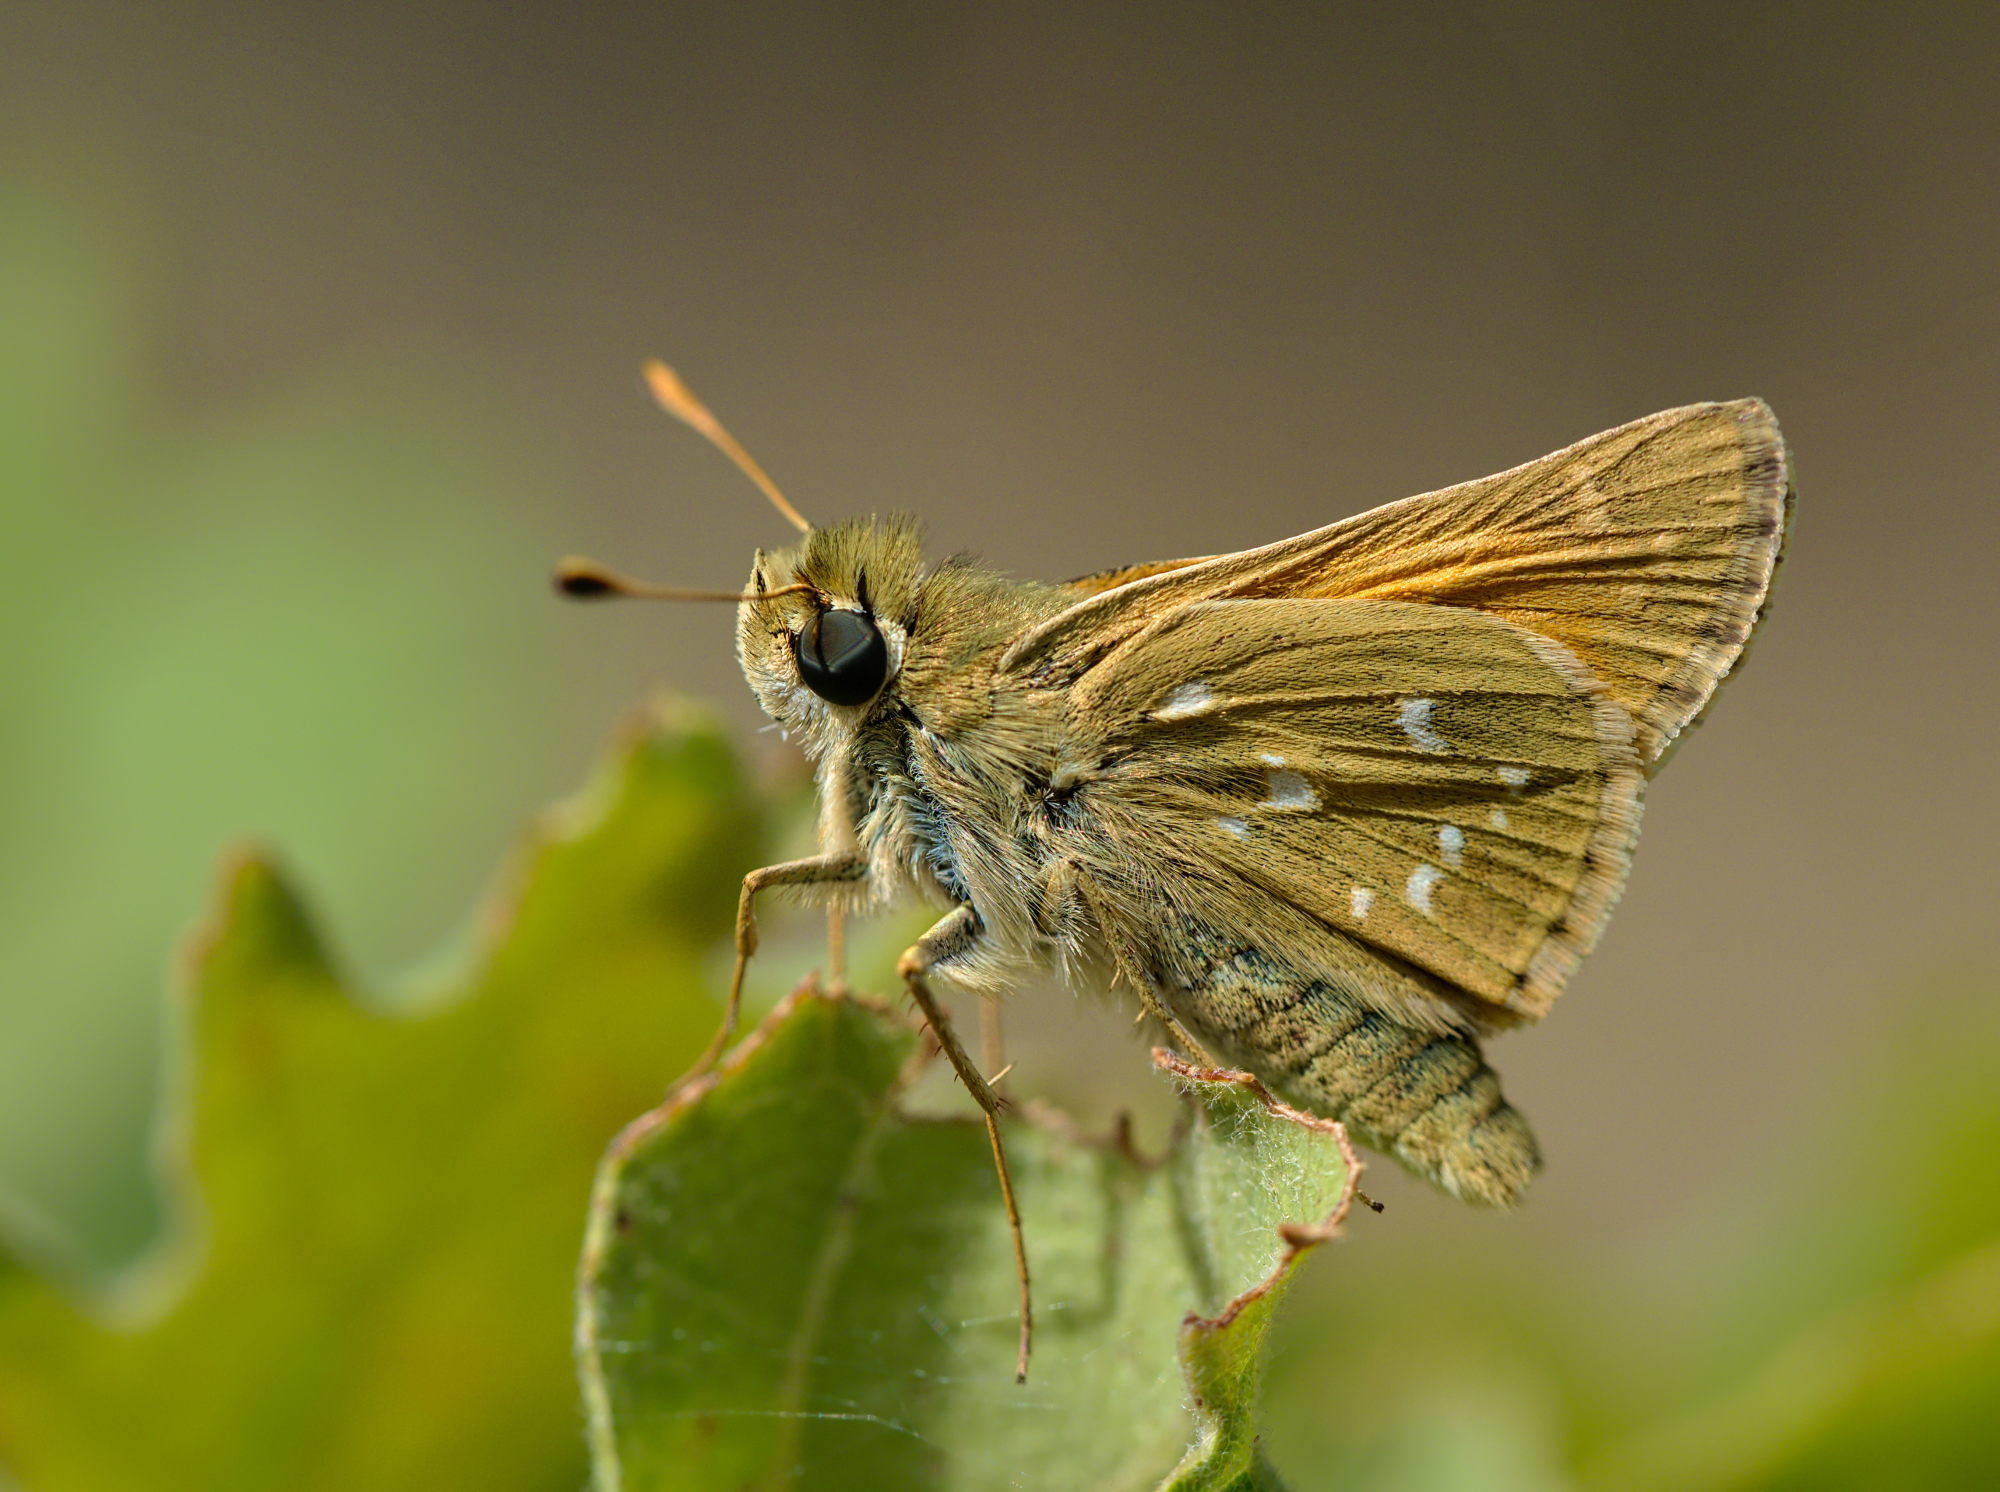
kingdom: Animalia
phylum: Arthropoda
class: Insecta
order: Lepidoptera
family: Hesperiidae
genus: Hesperia
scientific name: Hesperia comma
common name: Common branded skipper
